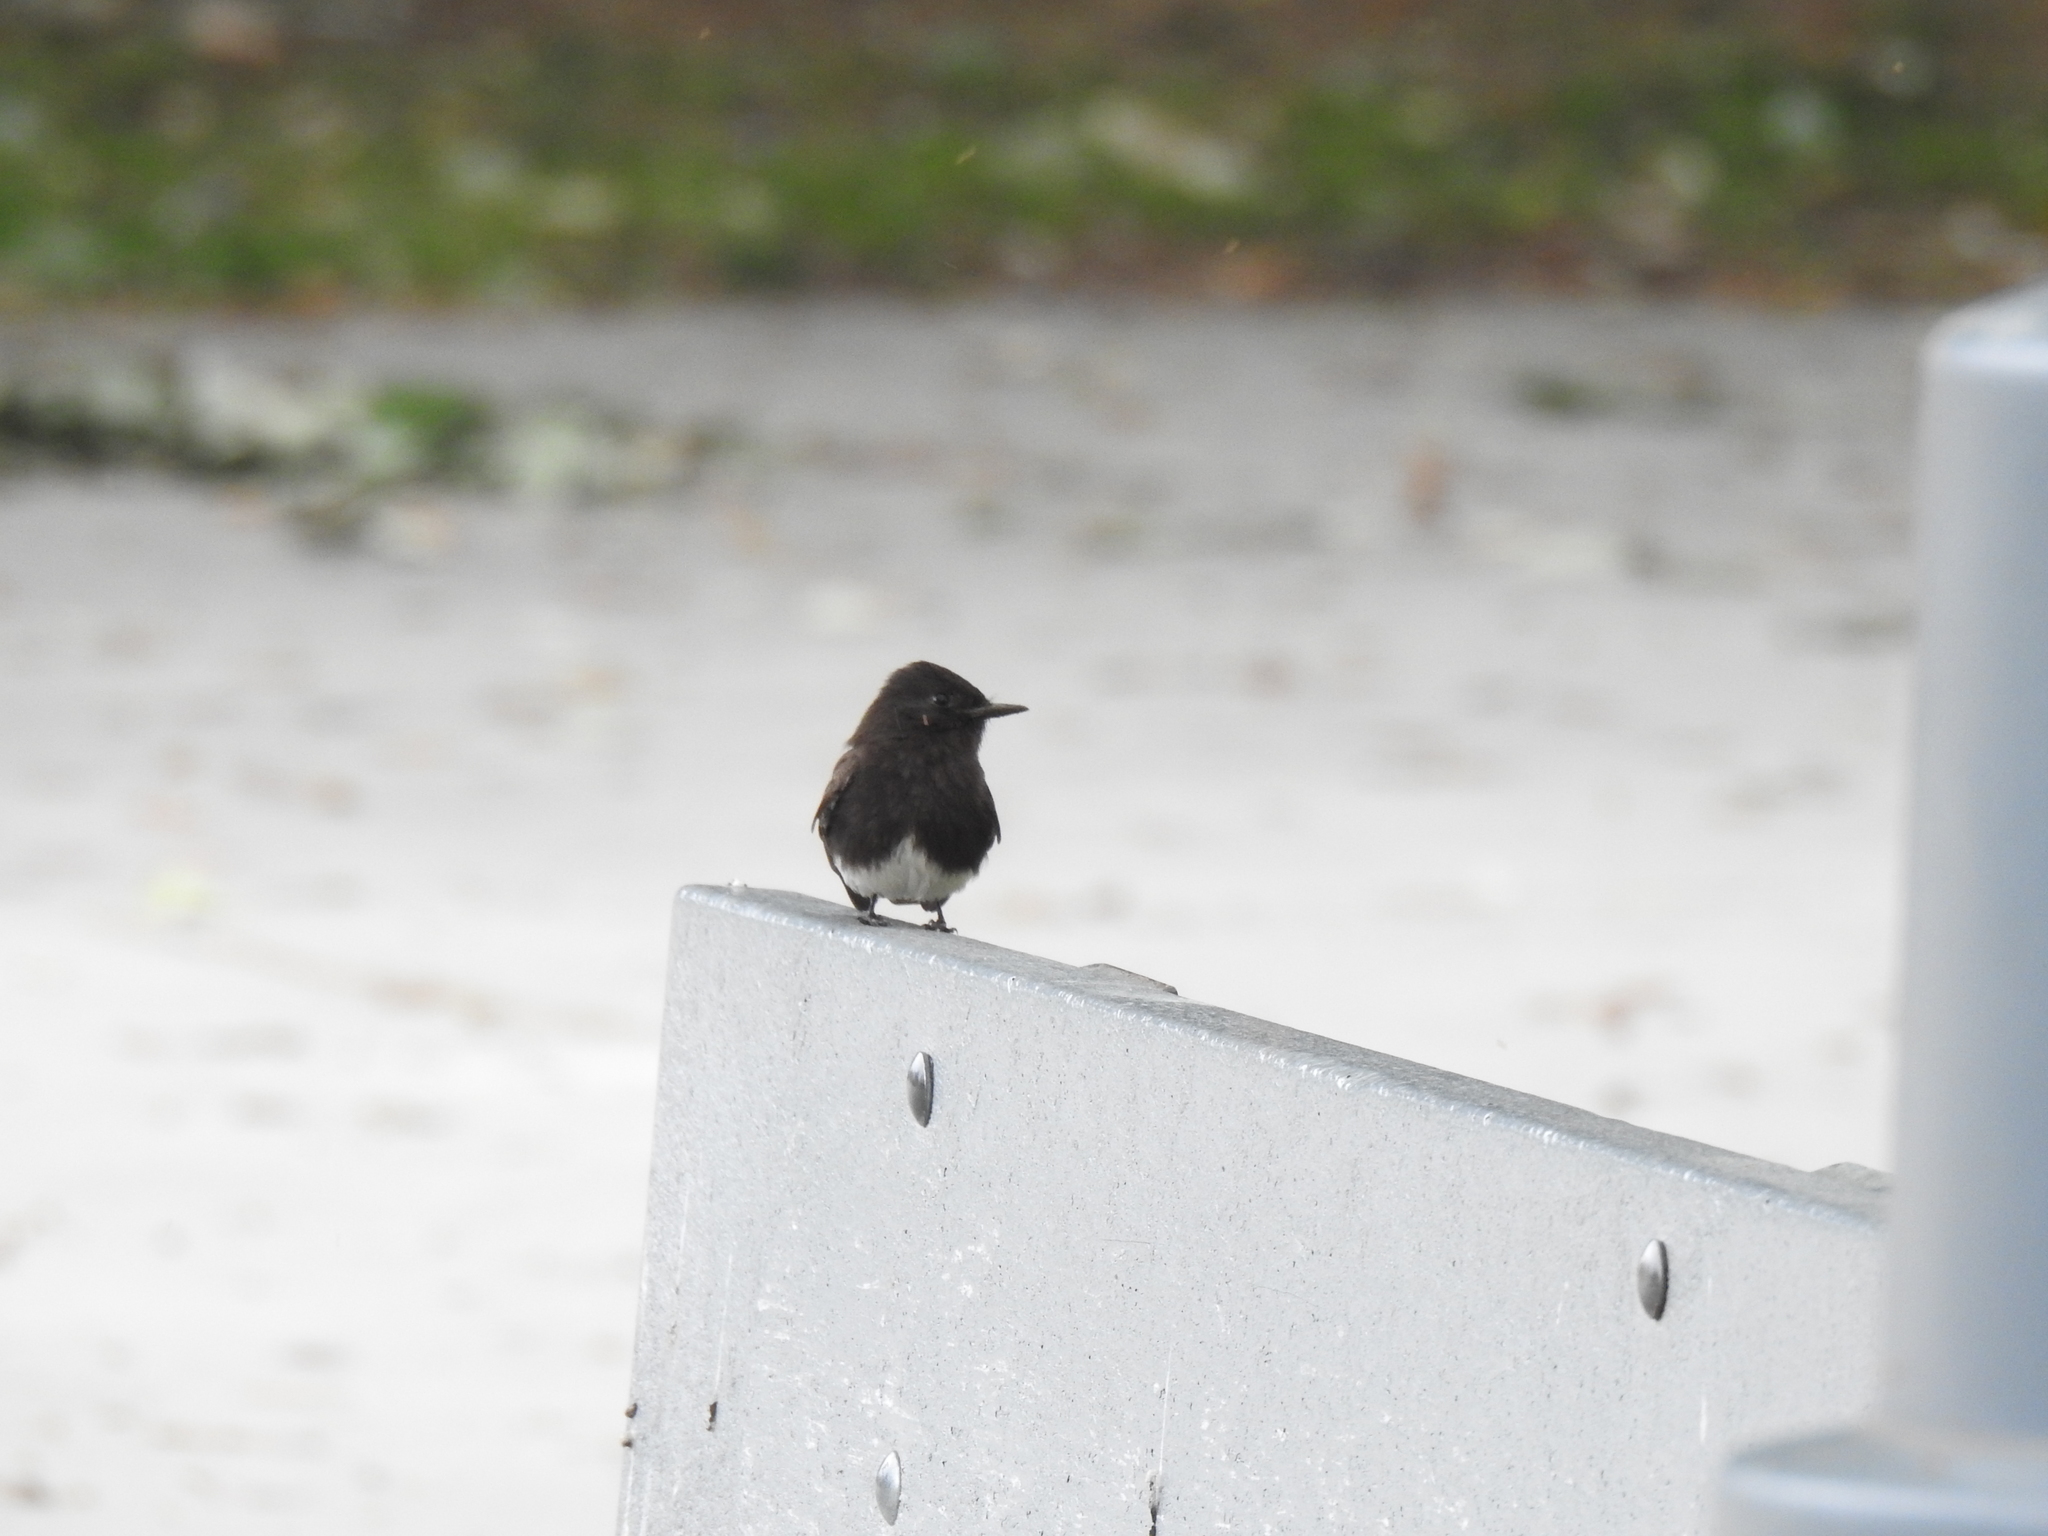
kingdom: Animalia
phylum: Chordata
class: Aves
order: Passeriformes
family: Tyrannidae
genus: Sayornis
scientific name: Sayornis nigricans
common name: Black phoebe
